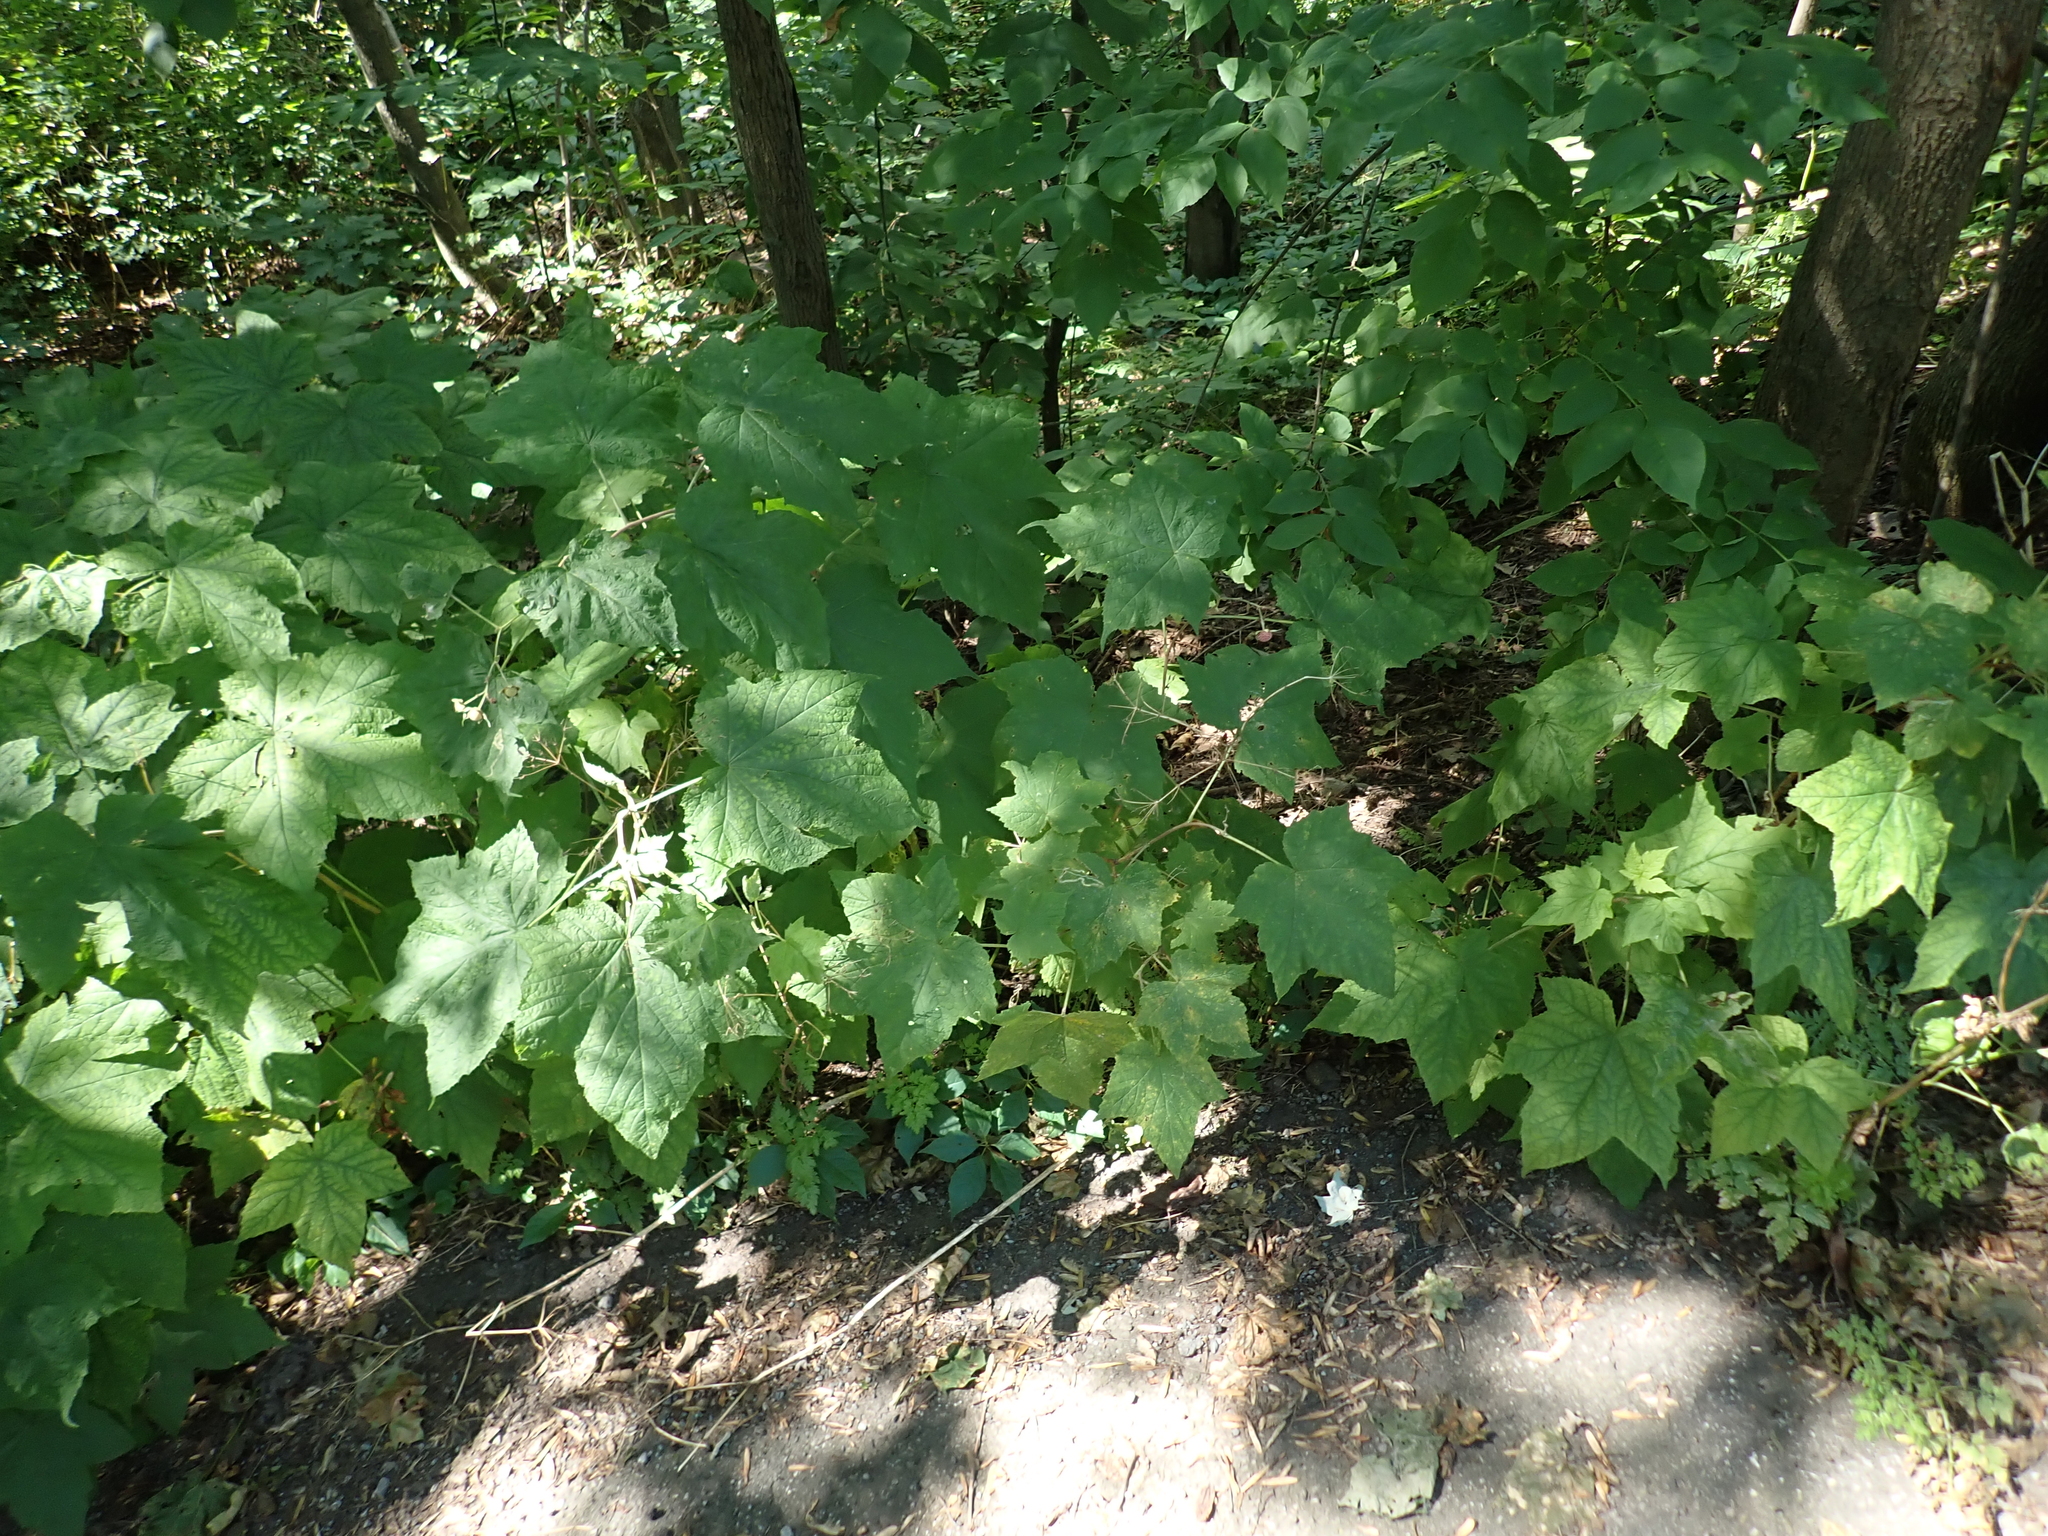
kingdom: Plantae
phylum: Tracheophyta
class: Magnoliopsida
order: Rosales
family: Rosaceae
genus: Rubus
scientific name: Rubus odoratus
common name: Purple-flowered raspberry
